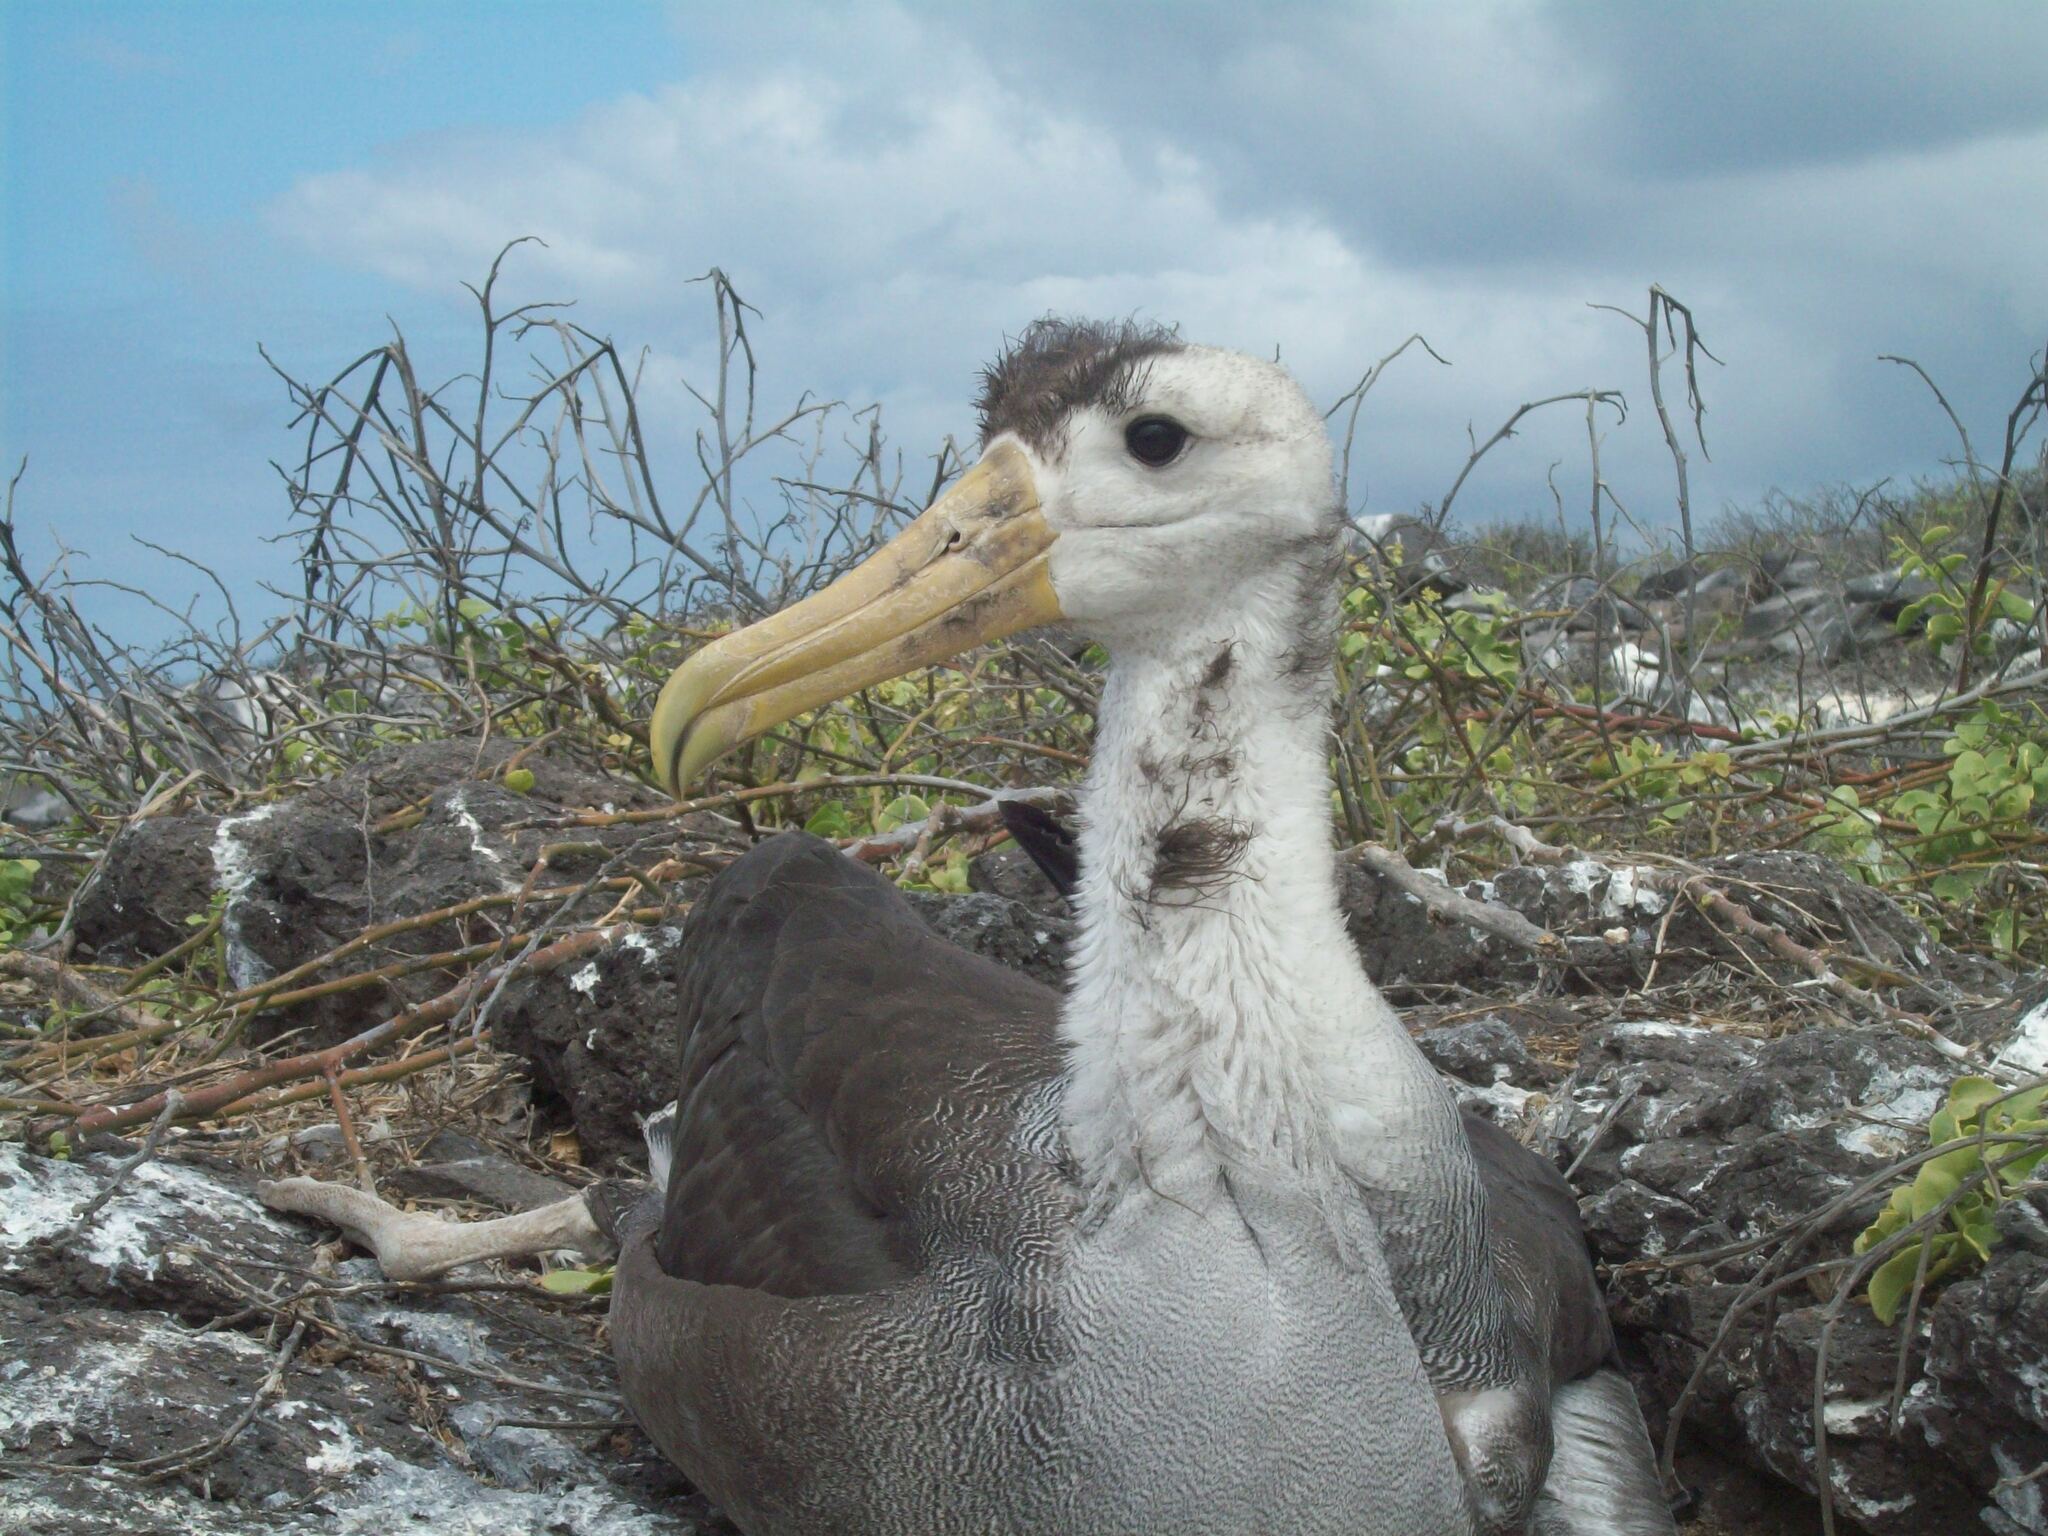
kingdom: Animalia
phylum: Chordata
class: Aves
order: Procellariiformes
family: Diomedeidae
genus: Phoebastria
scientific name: Phoebastria irrorata
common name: Waved albatross
